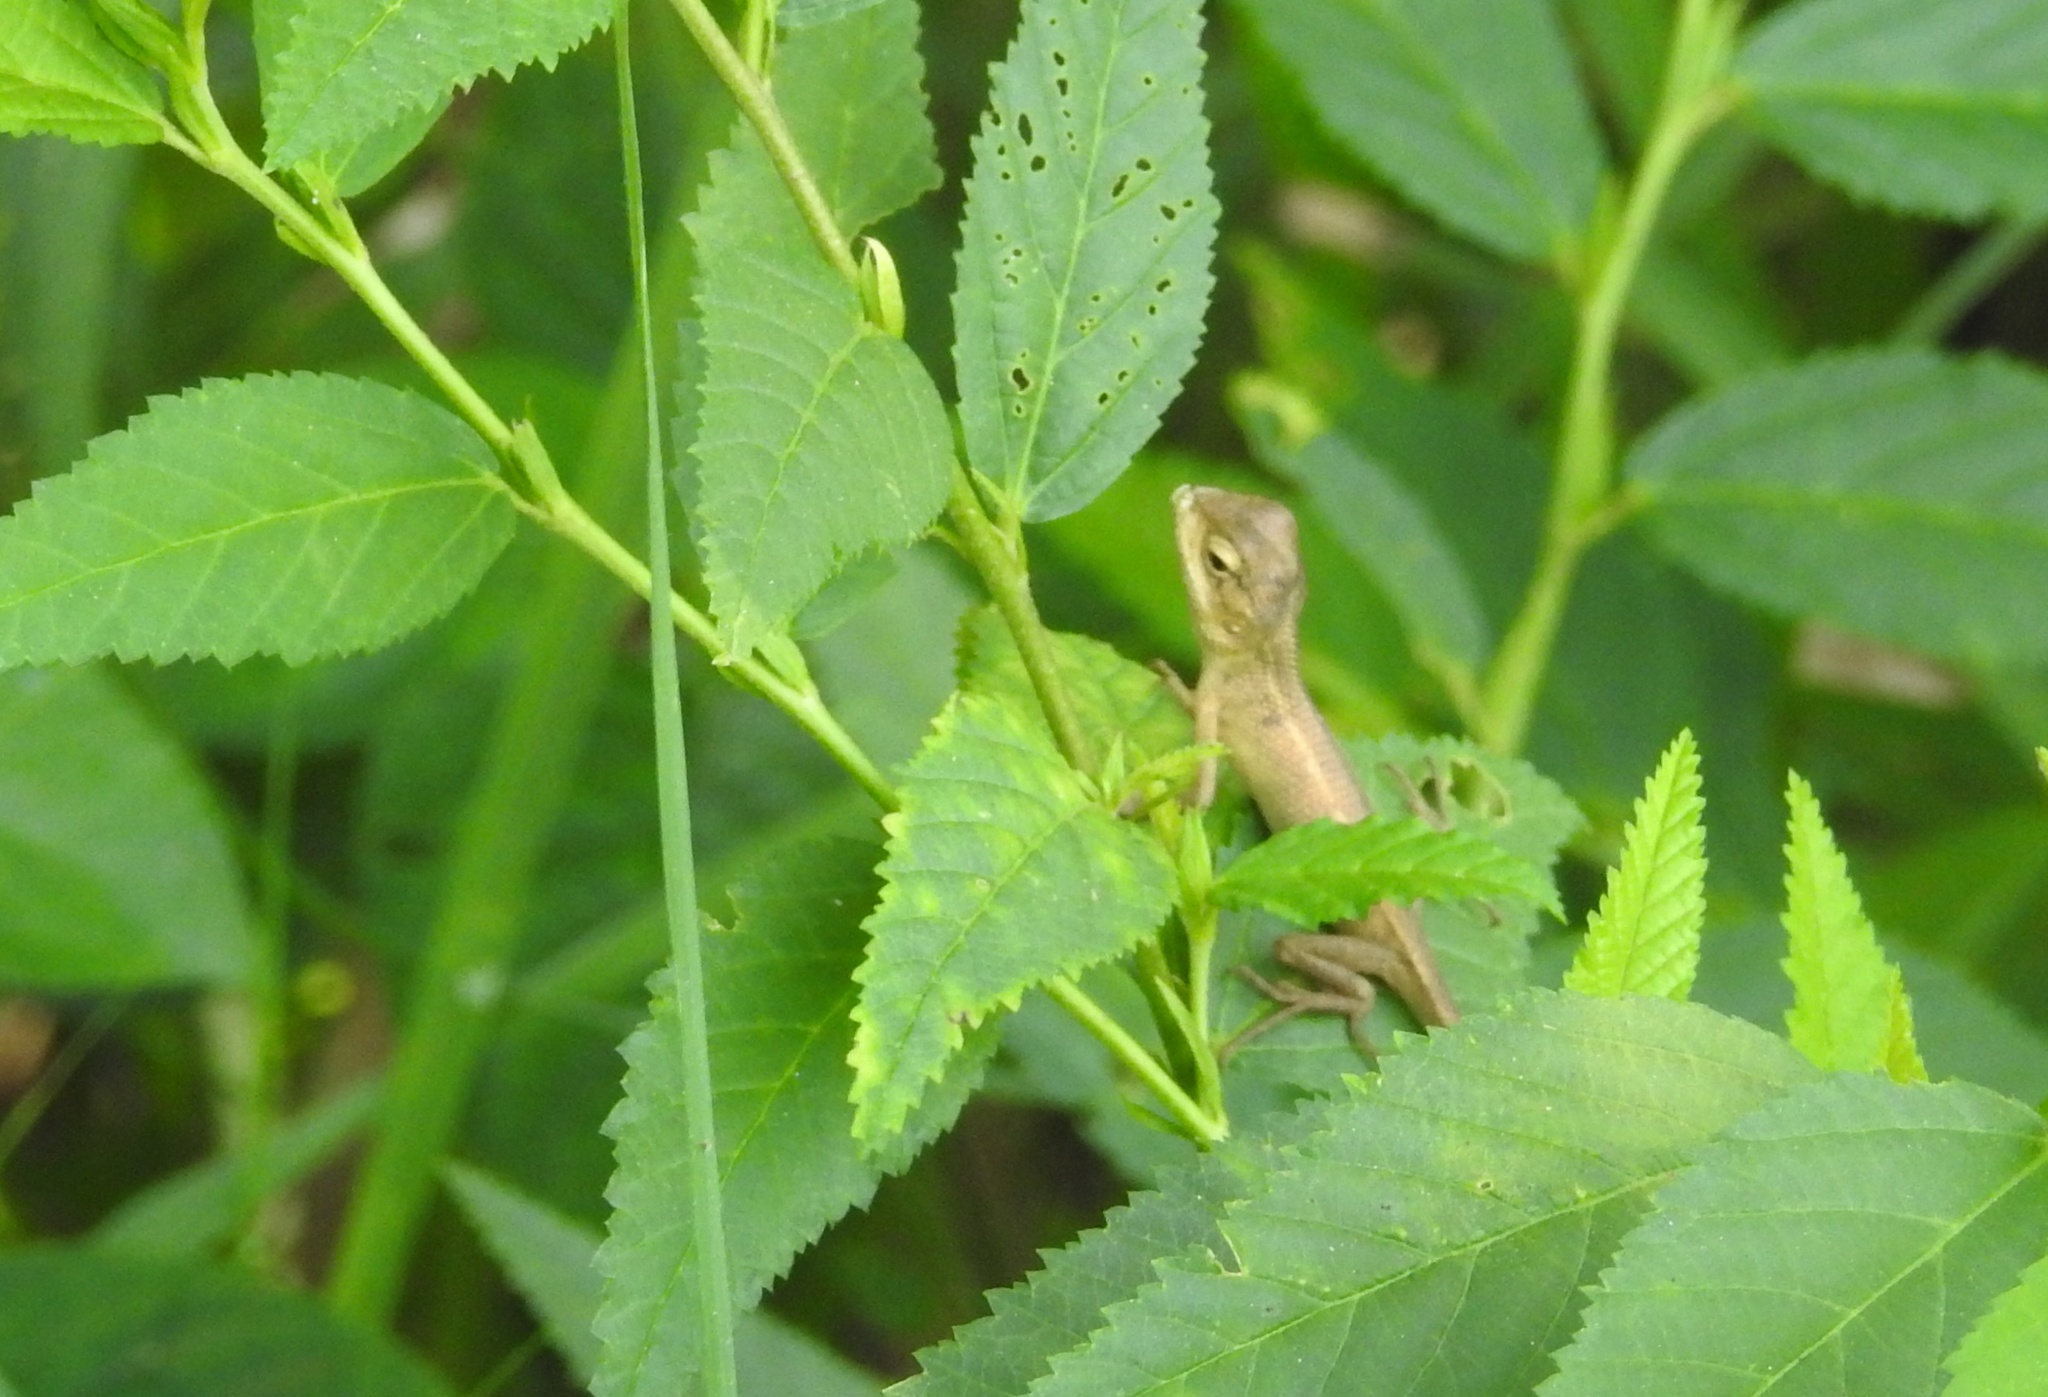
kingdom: Animalia
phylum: Chordata
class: Squamata
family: Agamidae
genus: Calotes
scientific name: Calotes versicolor
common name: Oriental garden lizard
